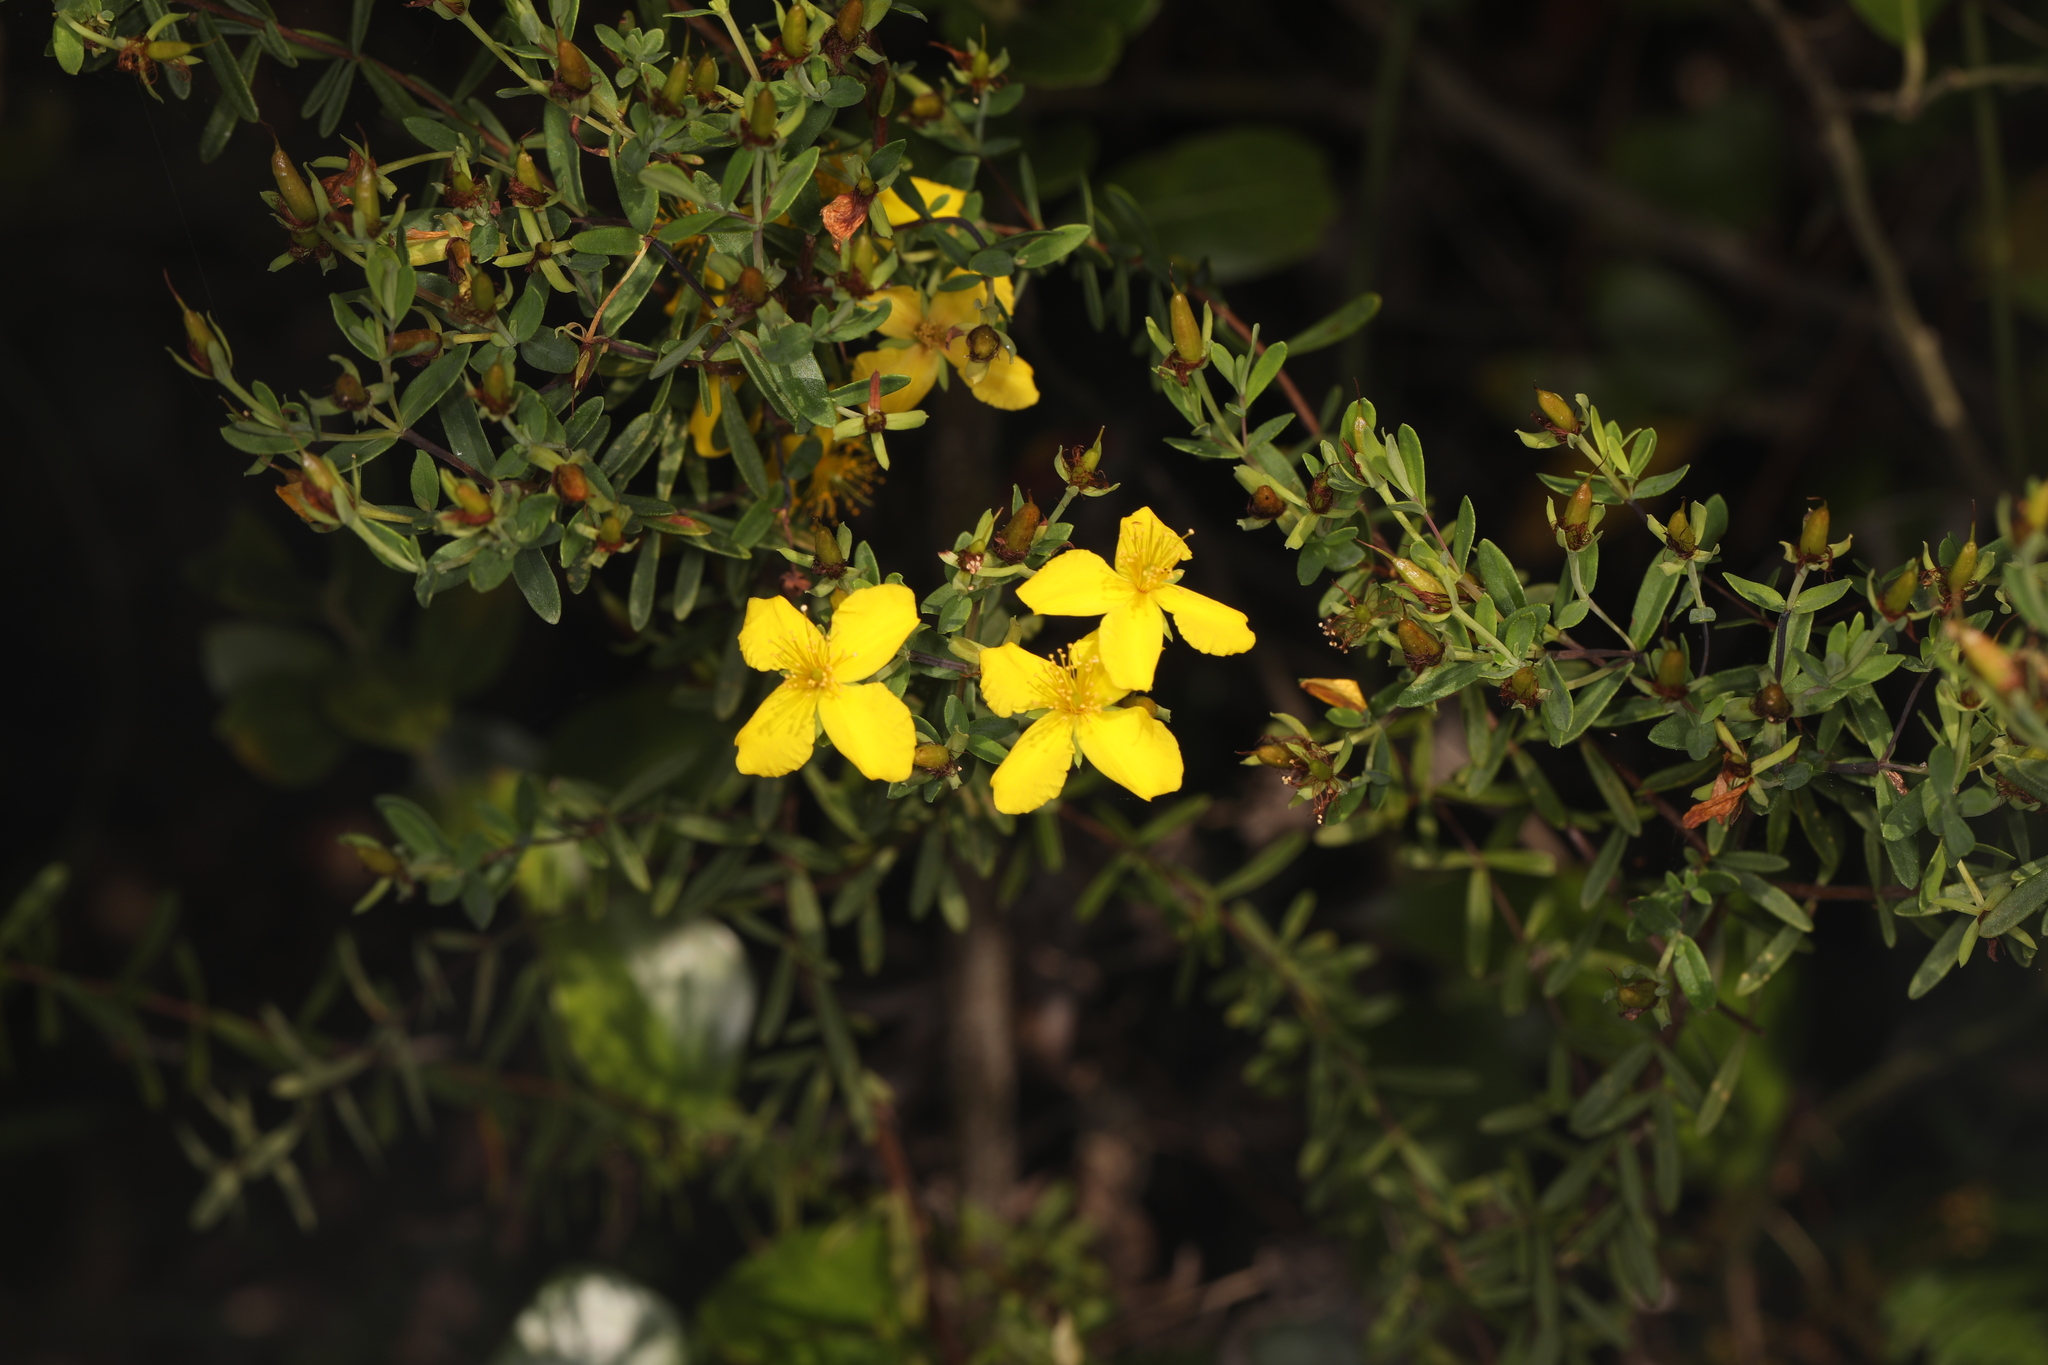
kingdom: Plantae
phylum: Tracheophyta
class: Magnoliopsida
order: Malpighiales
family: Hypericaceae
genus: Hypericum
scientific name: Hypericum microsepalum
